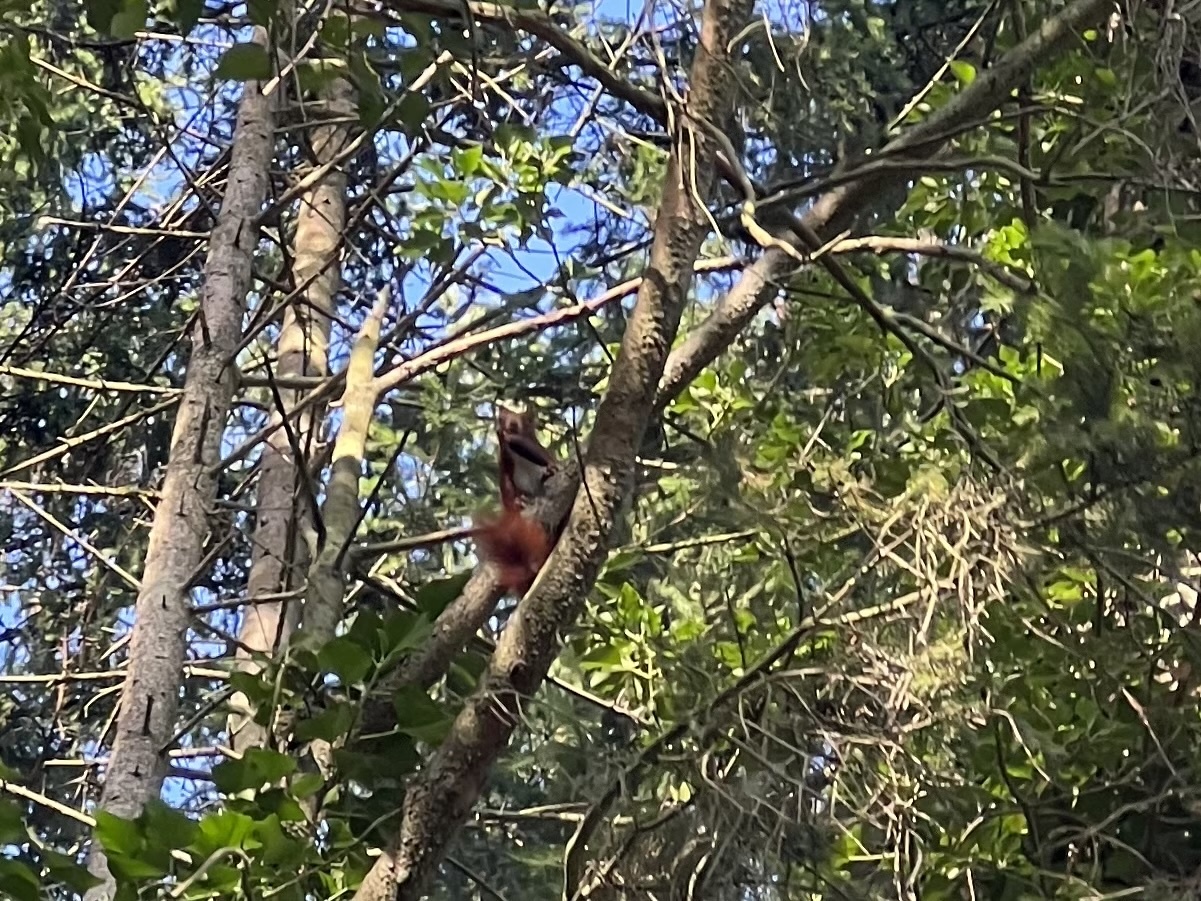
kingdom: Animalia
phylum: Chordata
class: Mammalia
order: Rodentia
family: Sciuridae
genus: Sciurus
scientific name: Sciurus vulgaris
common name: Eurasian red squirrel
